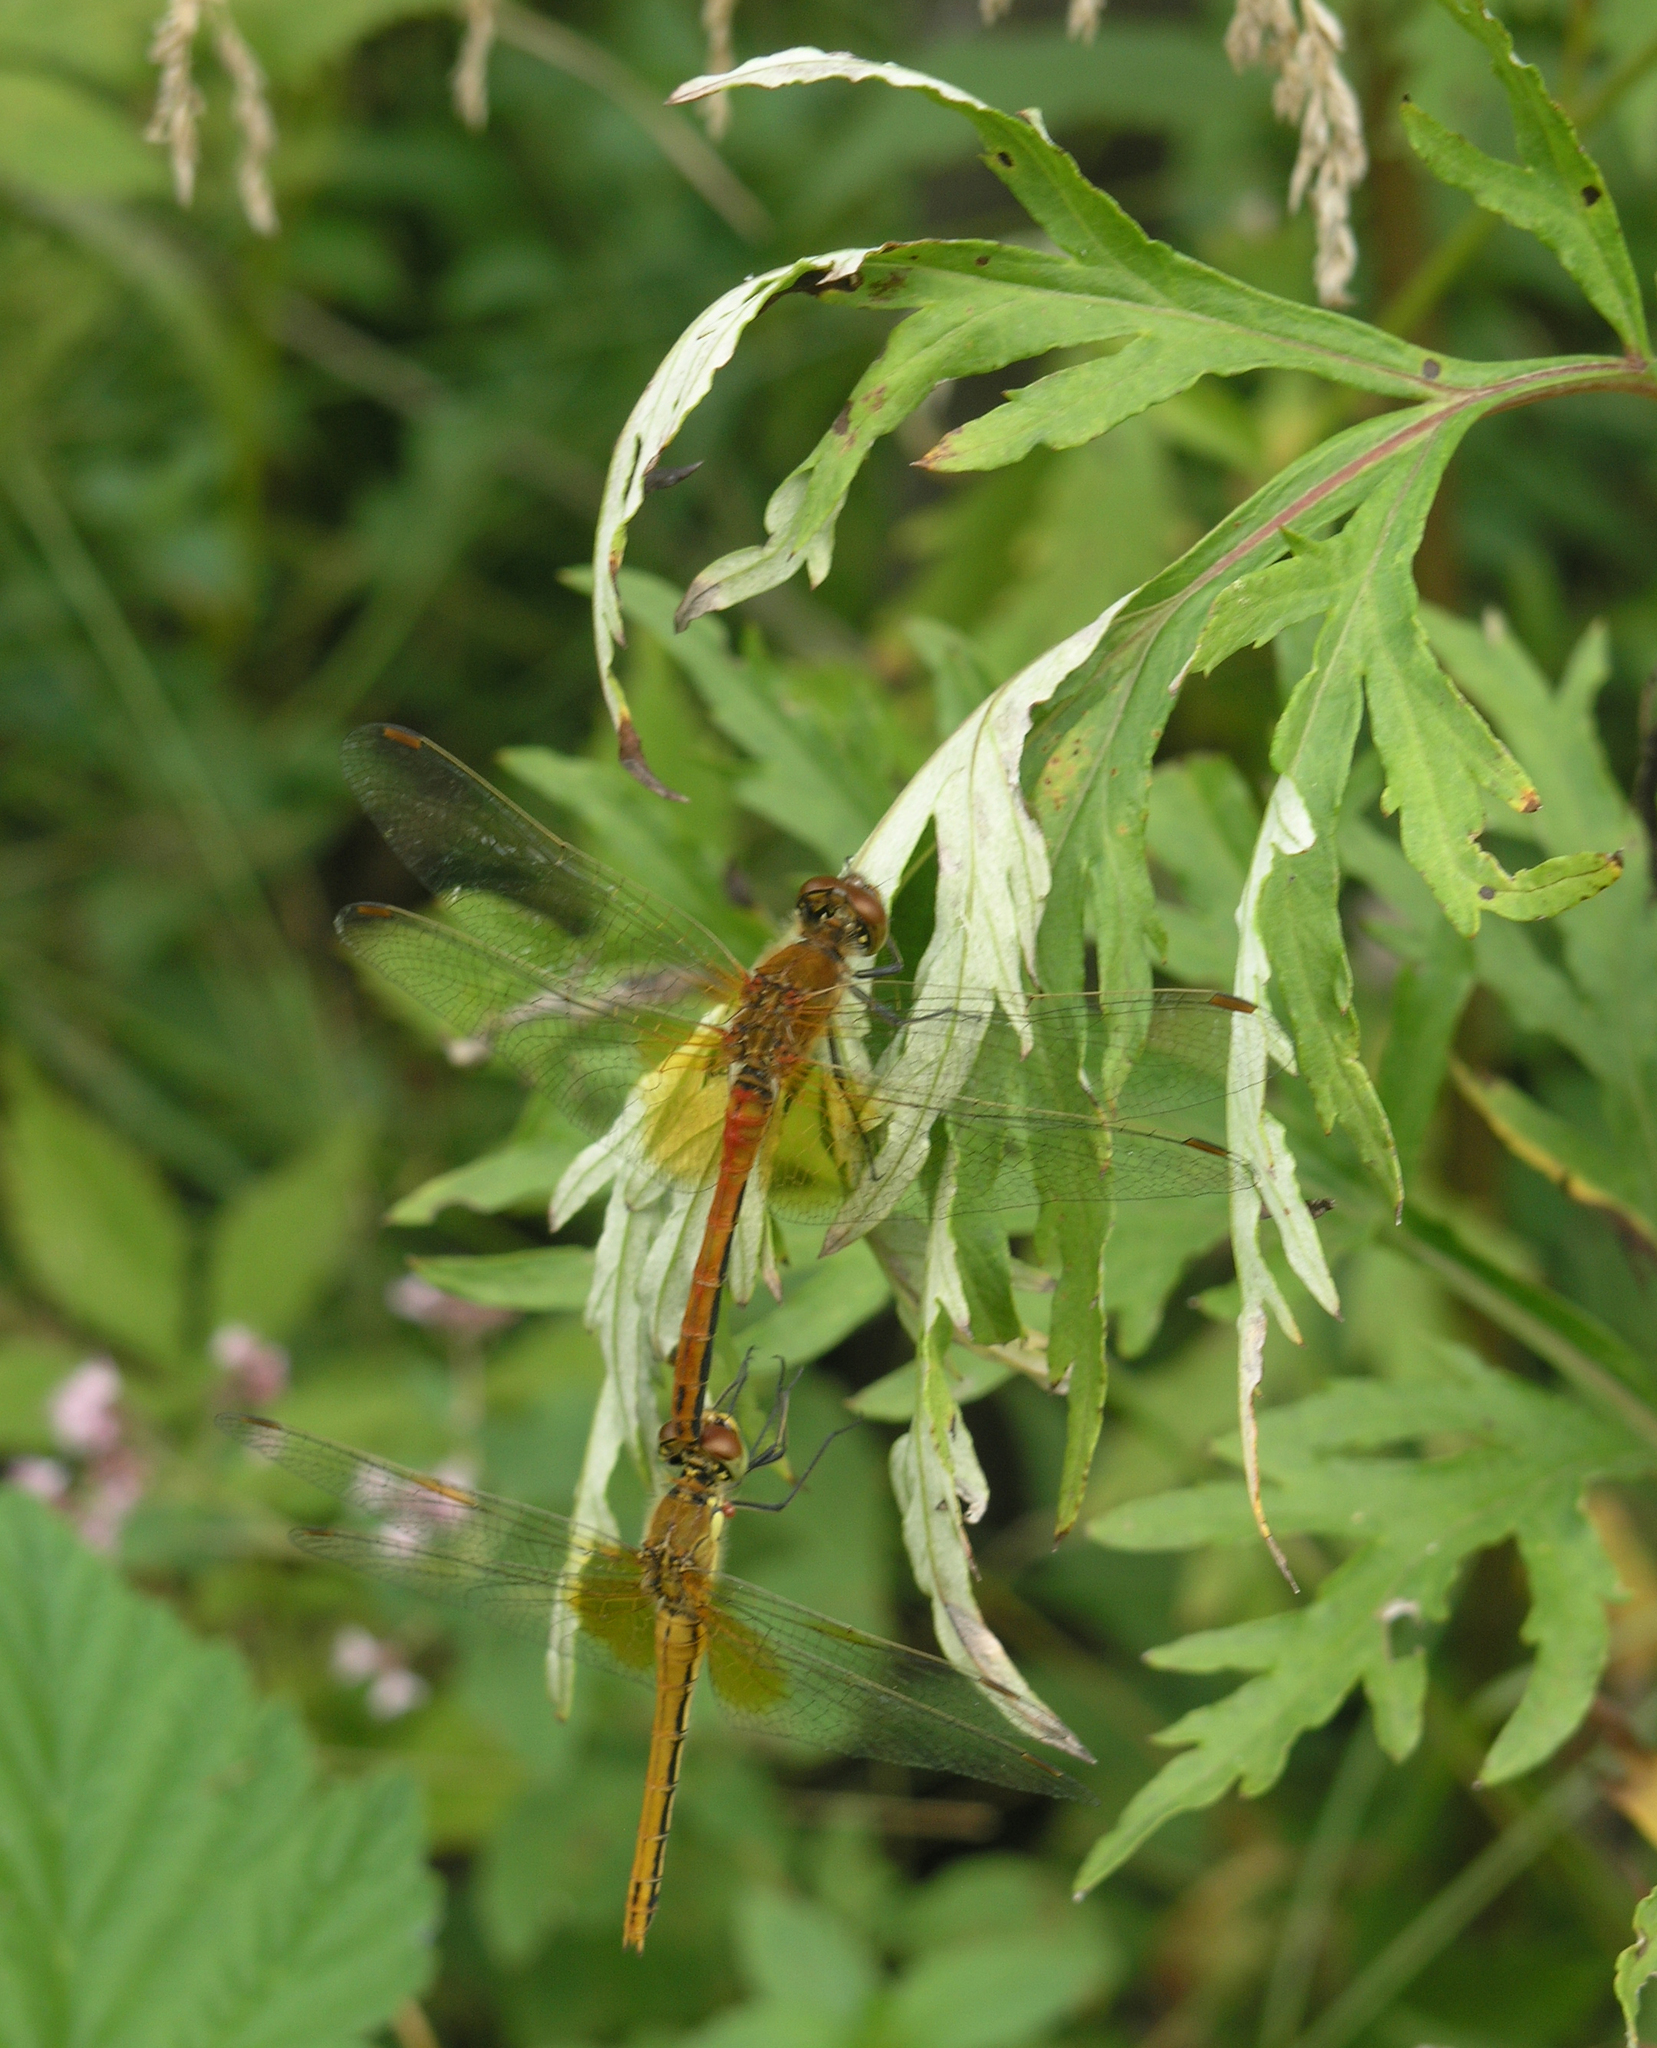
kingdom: Animalia
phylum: Arthropoda
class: Insecta
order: Odonata
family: Libellulidae
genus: Sympetrum
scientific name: Sympetrum flaveolum
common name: Yellow-winged darter
